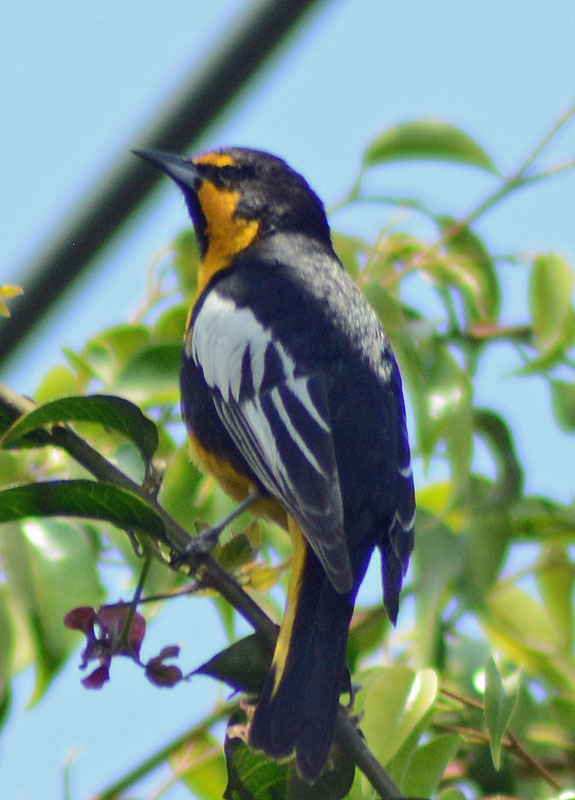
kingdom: Animalia
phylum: Chordata
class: Aves
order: Passeriformes
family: Icteridae
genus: Icterus
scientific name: Icterus abeillei
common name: Black-backed oriole
